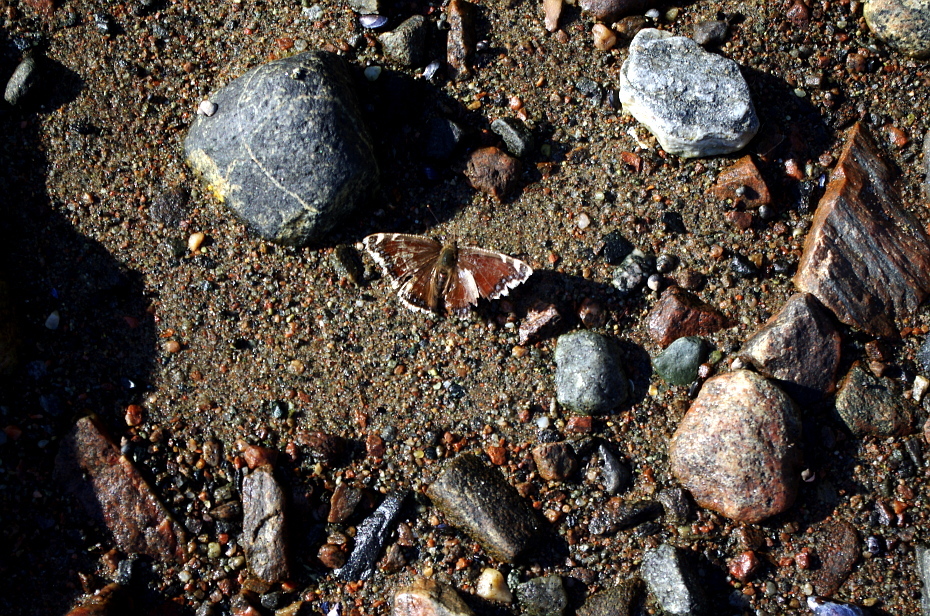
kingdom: Animalia
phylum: Arthropoda
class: Insecta
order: Lepidoptera
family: Nymphalidae
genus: Nymphalis
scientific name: Nymphalis antiopa
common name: Camberwell beauty
